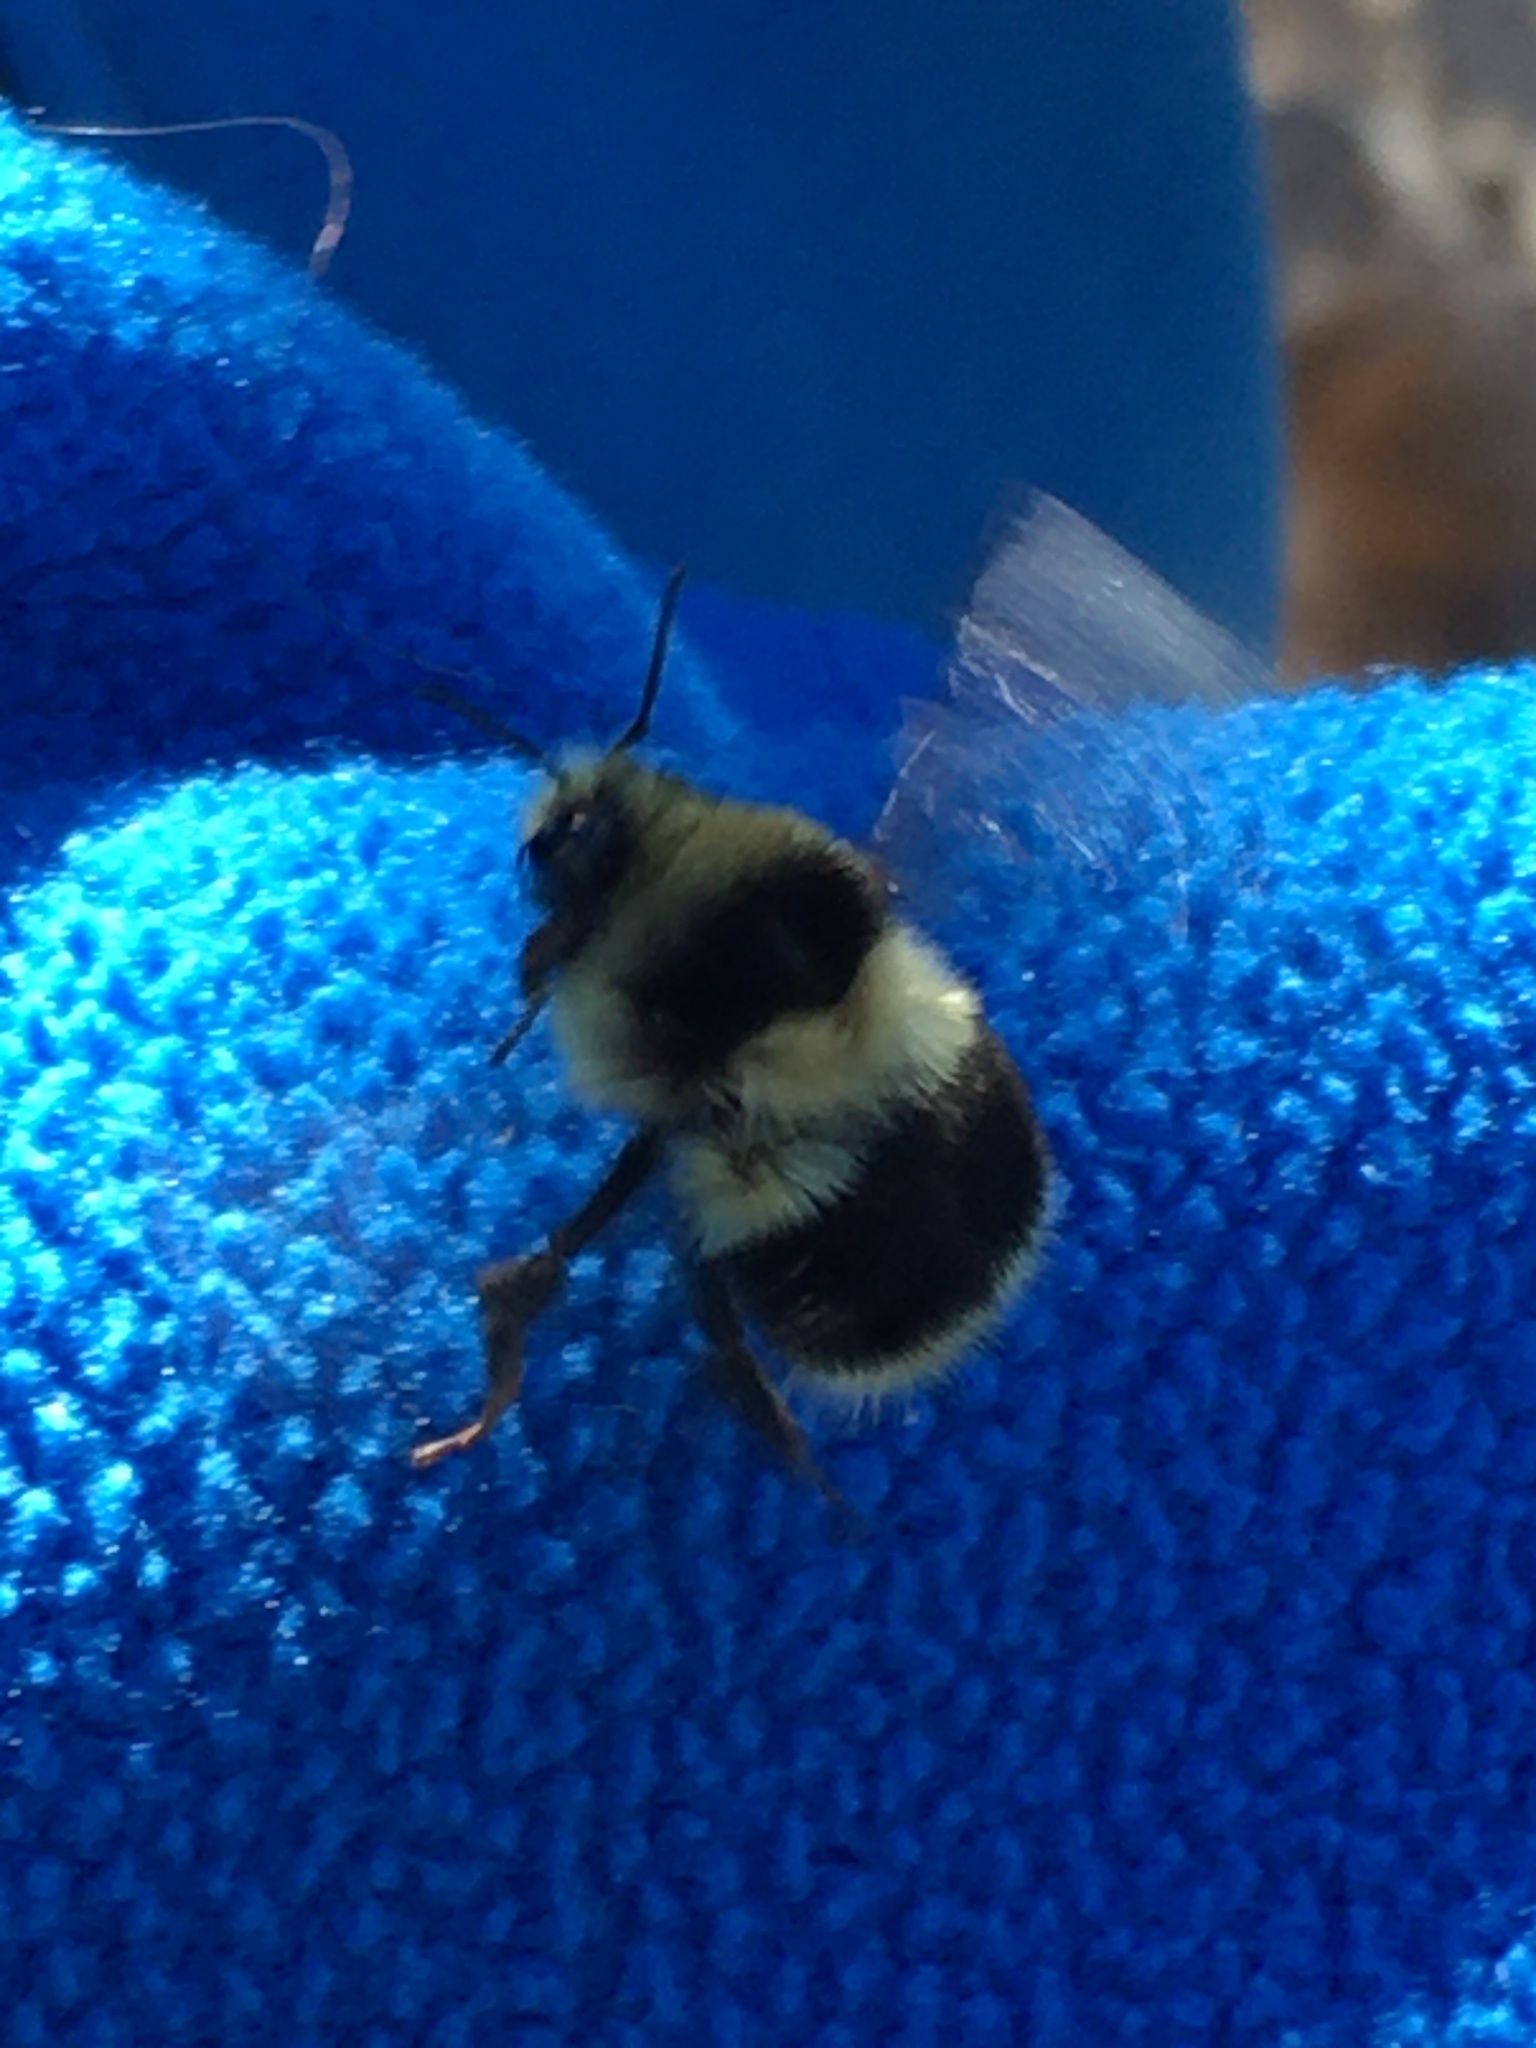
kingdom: Animalia
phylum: Arthropoda
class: Insecta
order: Hymenoptera
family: Apidae
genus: Bombus
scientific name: Bombus melanopygus
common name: Black tail bumble bee
